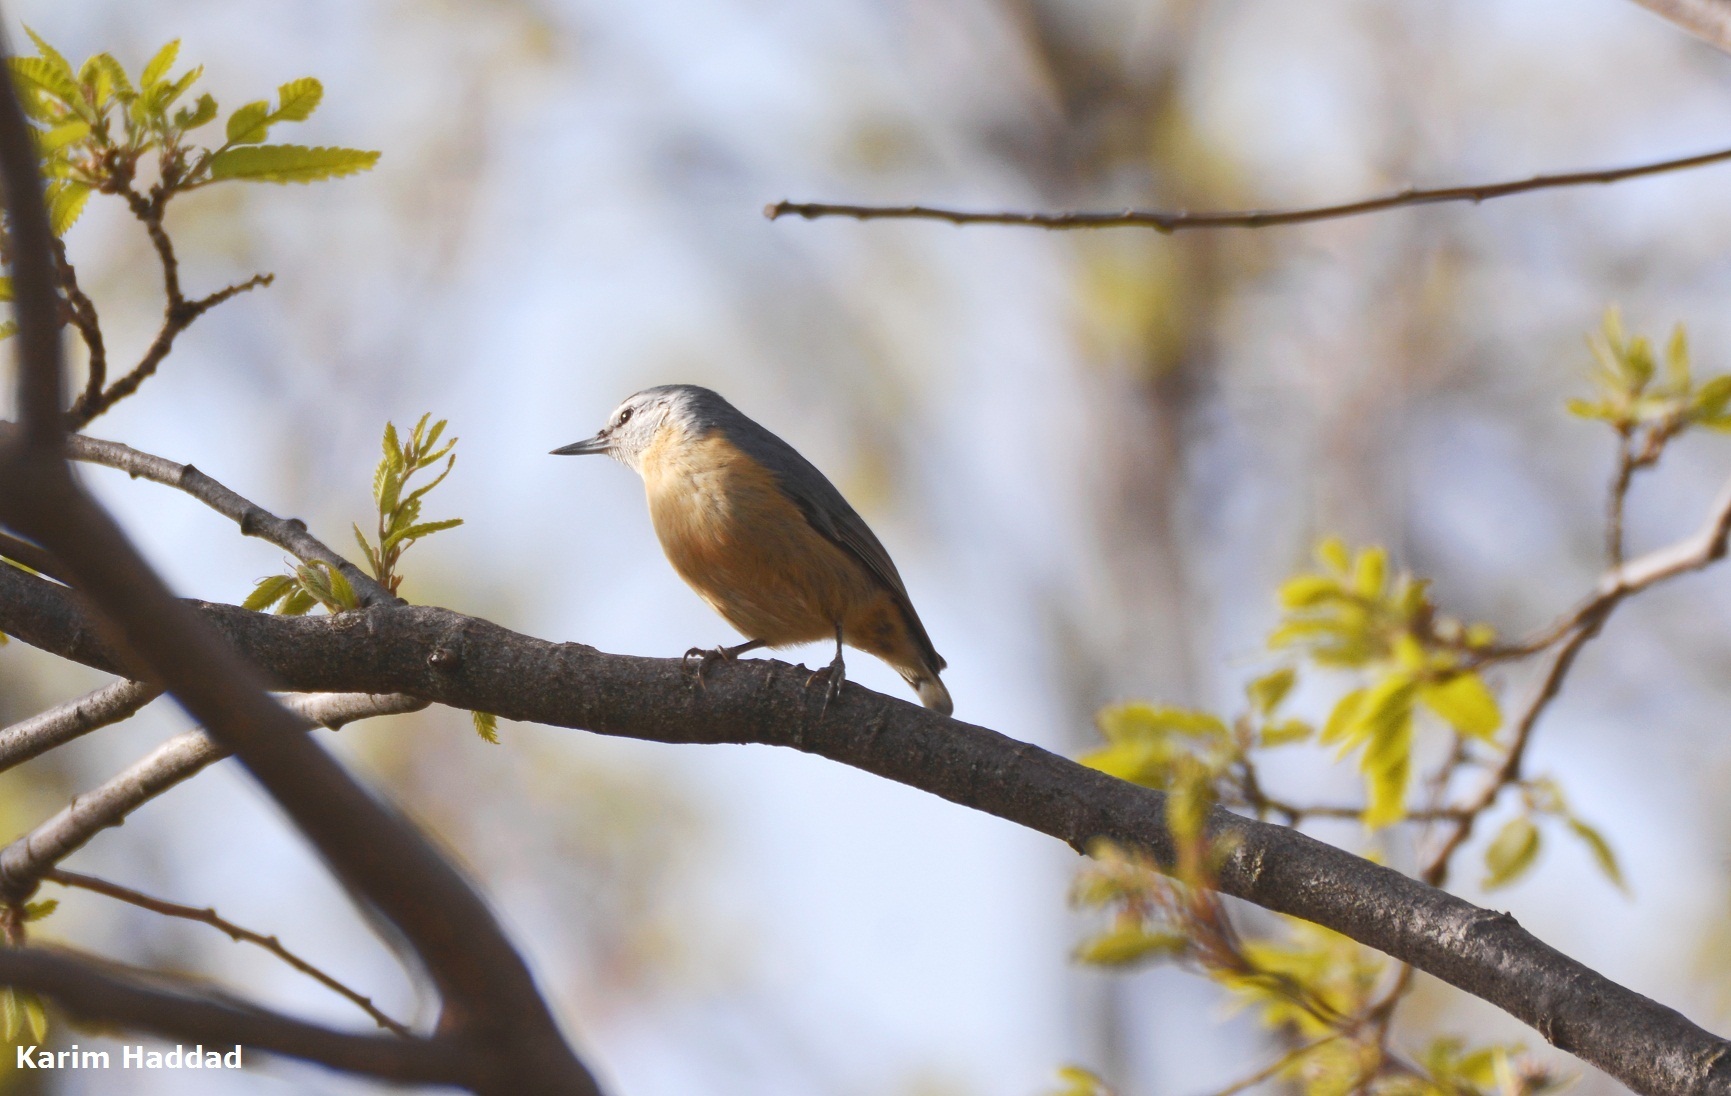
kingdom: Animalia
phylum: Chordata
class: Aves
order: Passeriformes
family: Sittidae
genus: Sitta
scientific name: Sitta ledanti
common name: Algerian nuthatch
